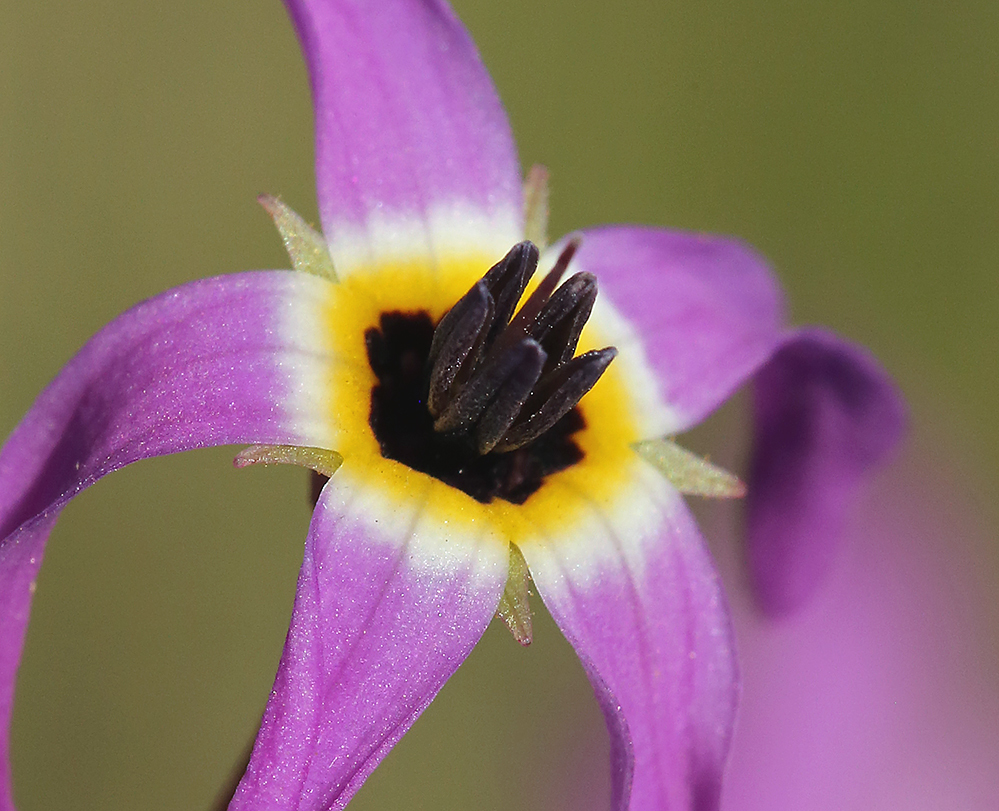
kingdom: Plantae
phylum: Tracheophyta
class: Magnoliopsida
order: Ericales
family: Primulaceae
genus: Dodecatheon
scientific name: Dodecatheon hendersonii
